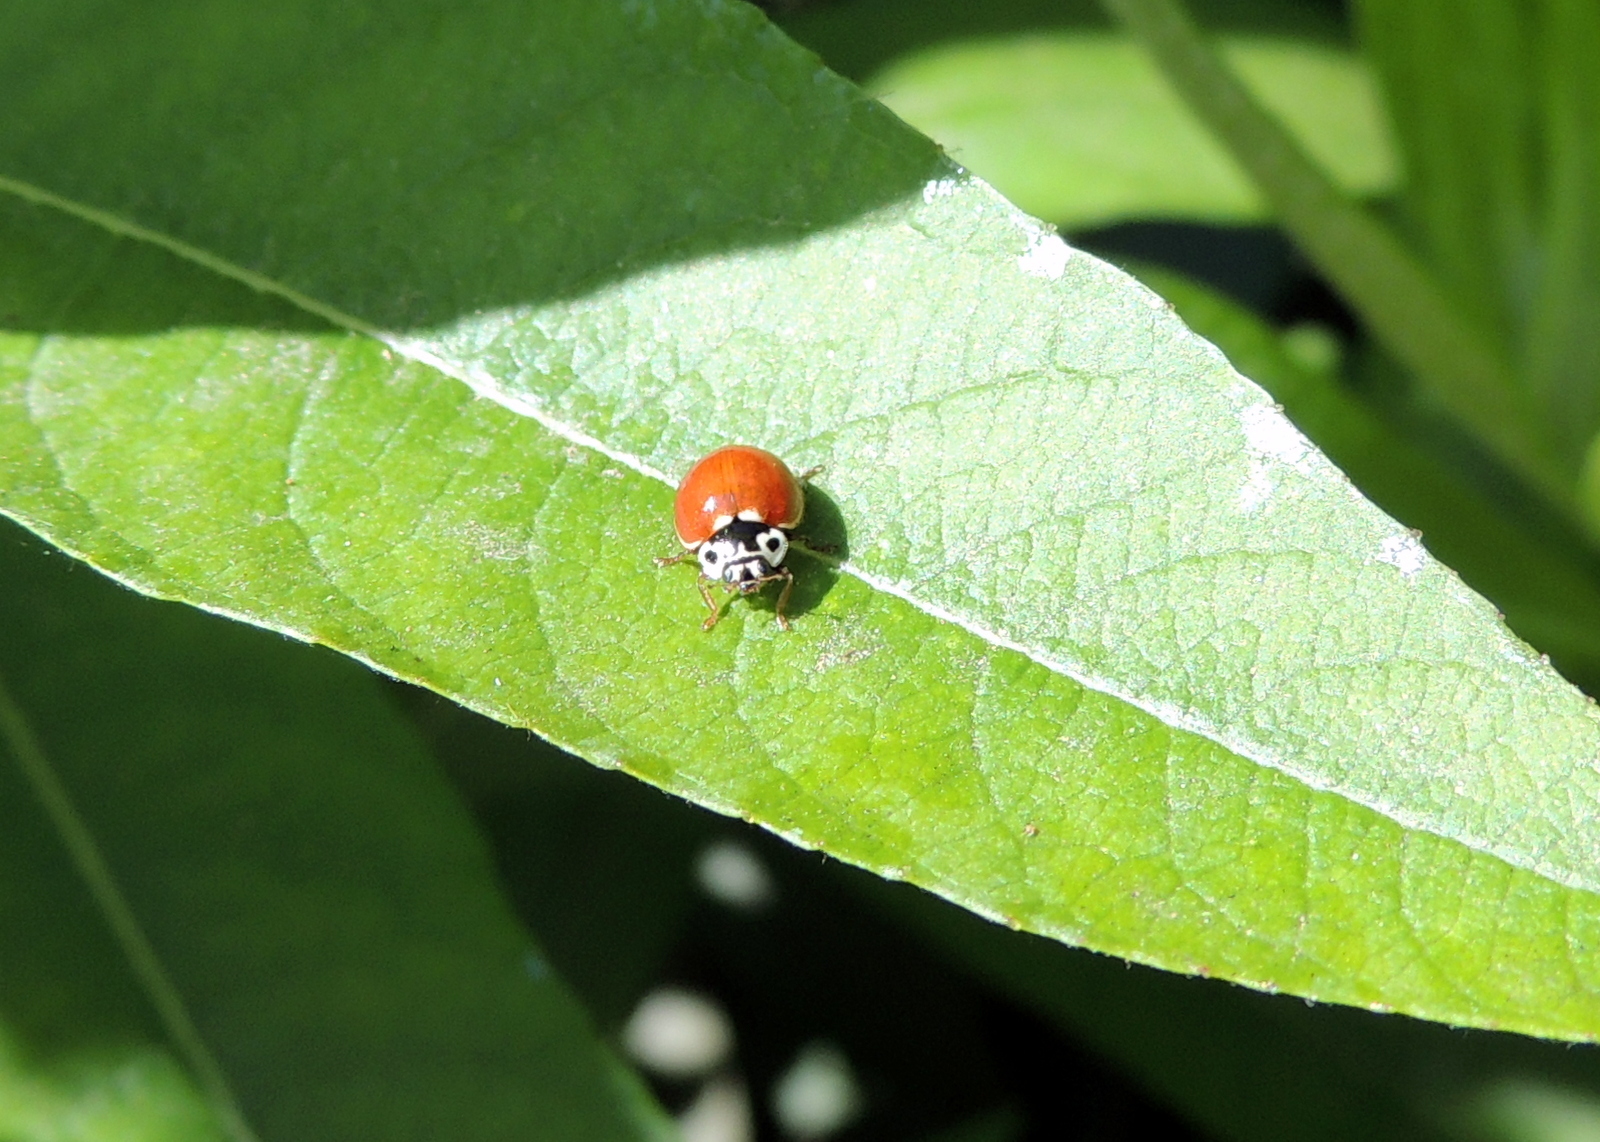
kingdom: Animalia
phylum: Arthropoda
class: Insecta
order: Coleoptera
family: Coccinellidae
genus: Cycloneda
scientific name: Cycloneda polita
